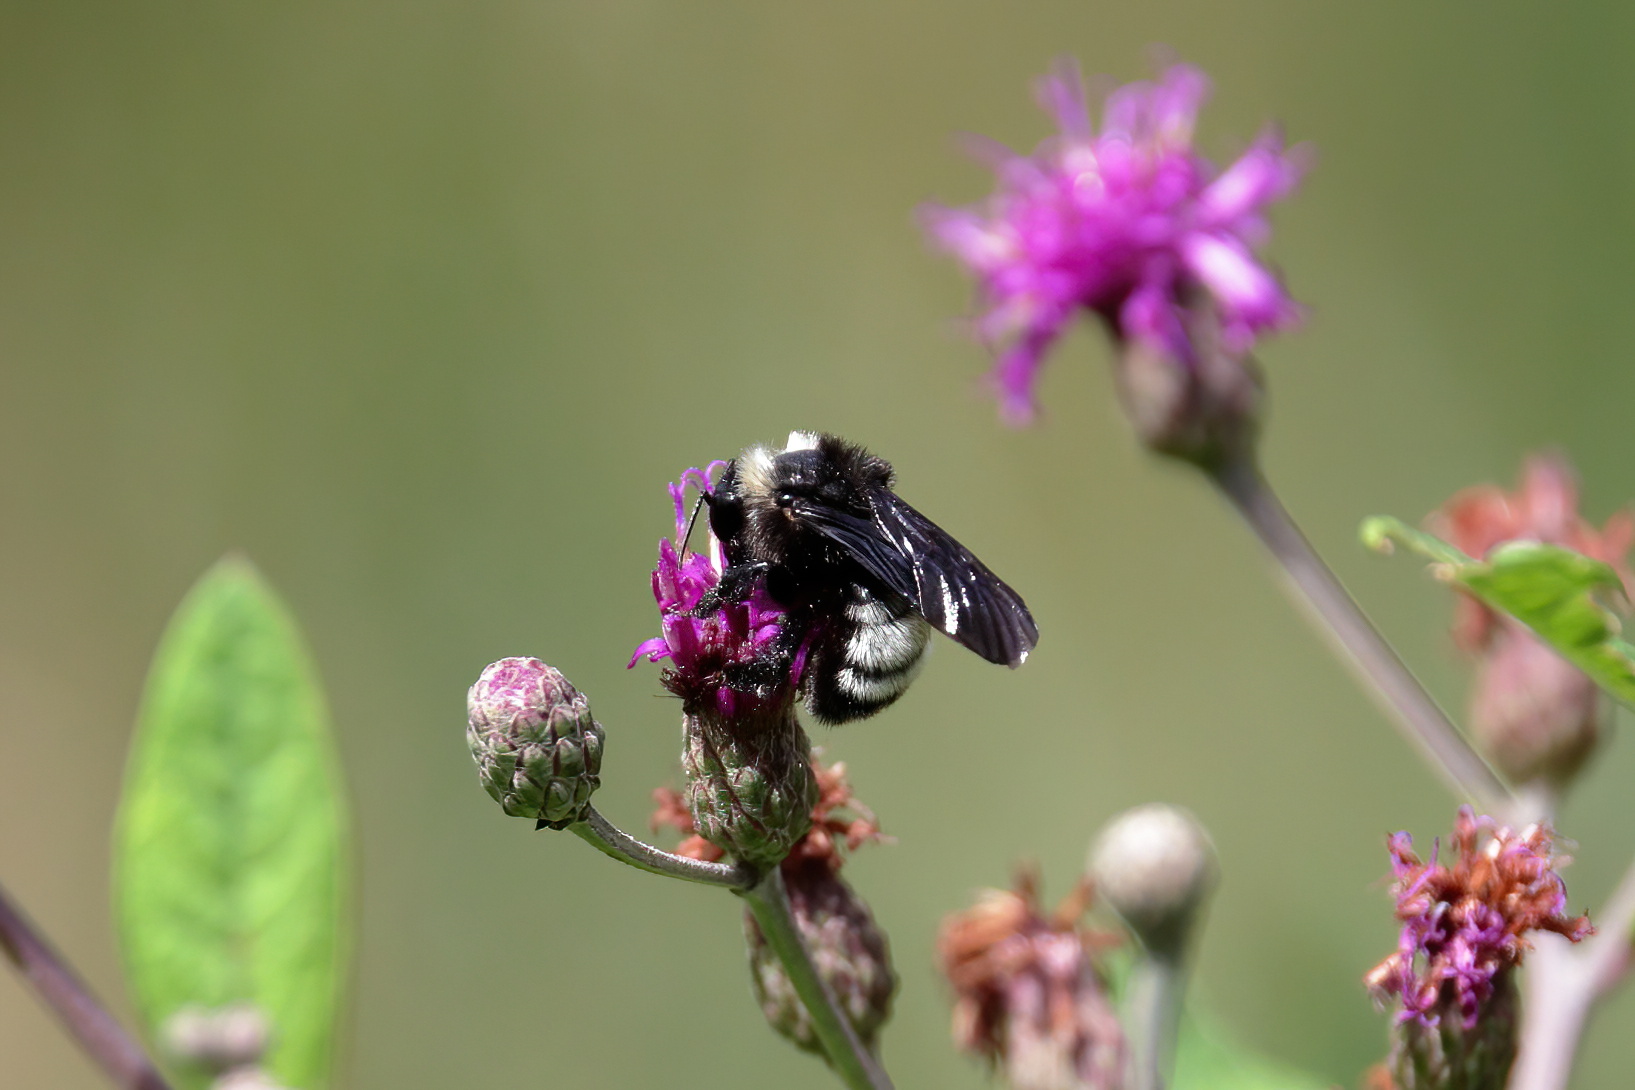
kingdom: Animalia
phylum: Arthropoda
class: Insecta
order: Hymenoptera
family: Apidae
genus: Bombus
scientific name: Bombus pensylvanicus
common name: Bumble bee
